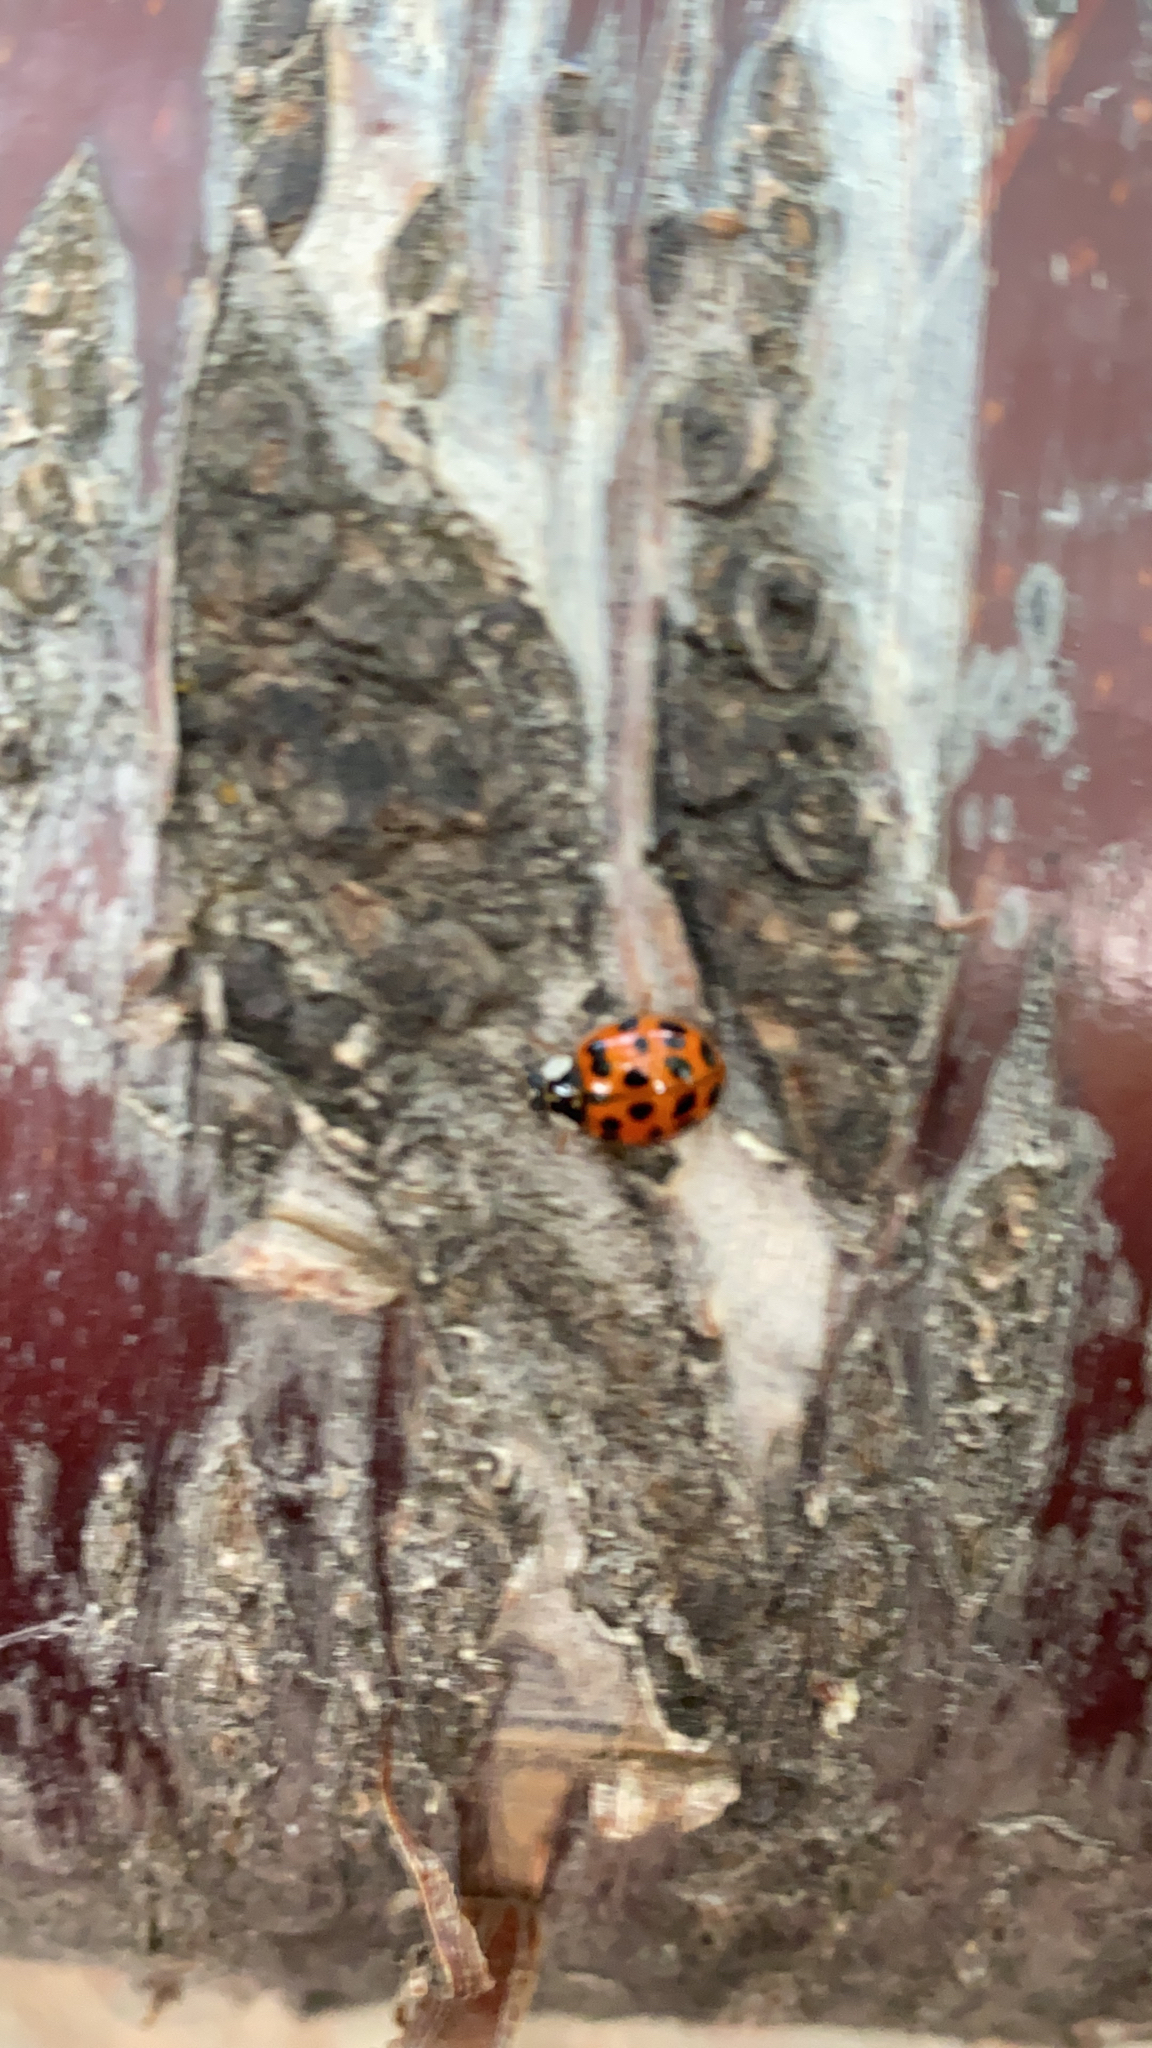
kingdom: Animalia
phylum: Arthropoda
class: Insecta
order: Coleoptera
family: Coccinellidae
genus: Harmonia
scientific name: Harmonia axyridis
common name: Harlequin ladybird
